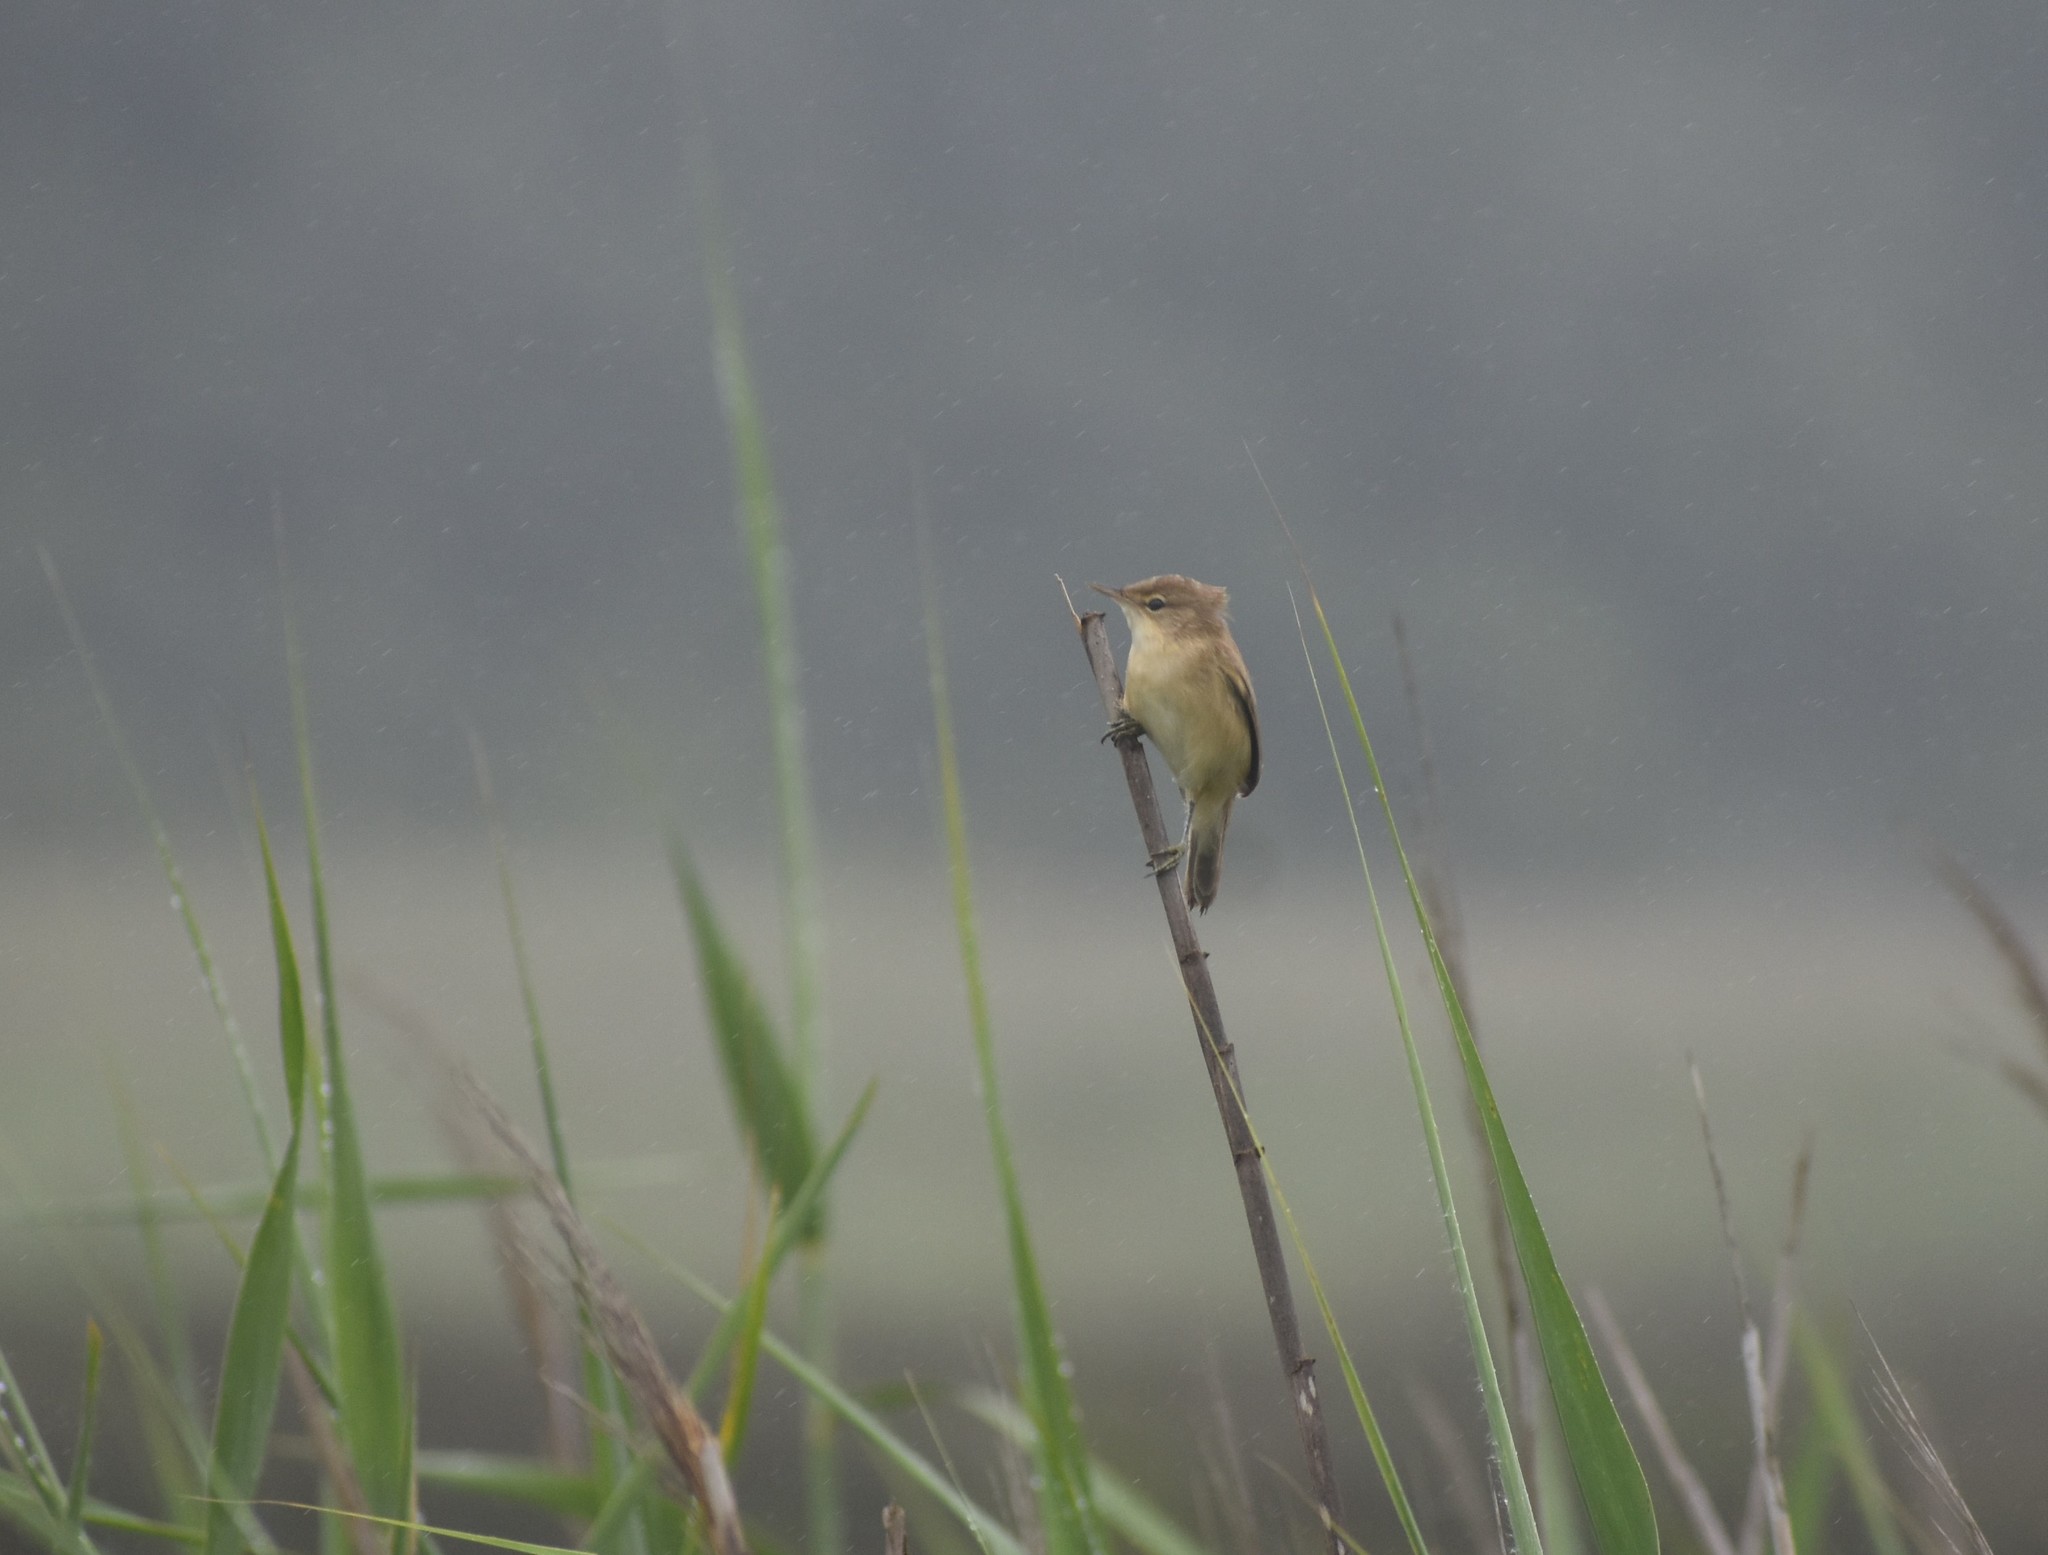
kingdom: Animalia
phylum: Chordata
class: Aves
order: Passeriformes
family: Acrocephalidae
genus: Acrocephalus
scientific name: Acrocephalus baeticatus
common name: African reed warbler
